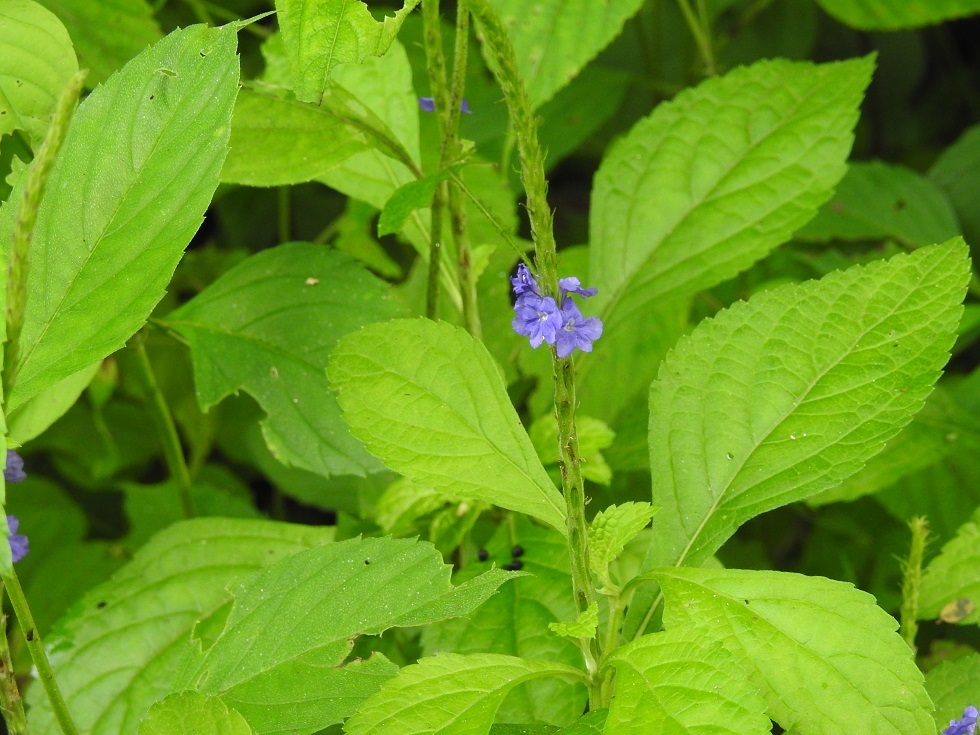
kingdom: Plantae
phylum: Tracheophyta
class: Magnoliopsida
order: Lamiales
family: Verbenaceae
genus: Stachytarpheta
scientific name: Stachytarpheta cayennensis
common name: Cayenne porterweed
